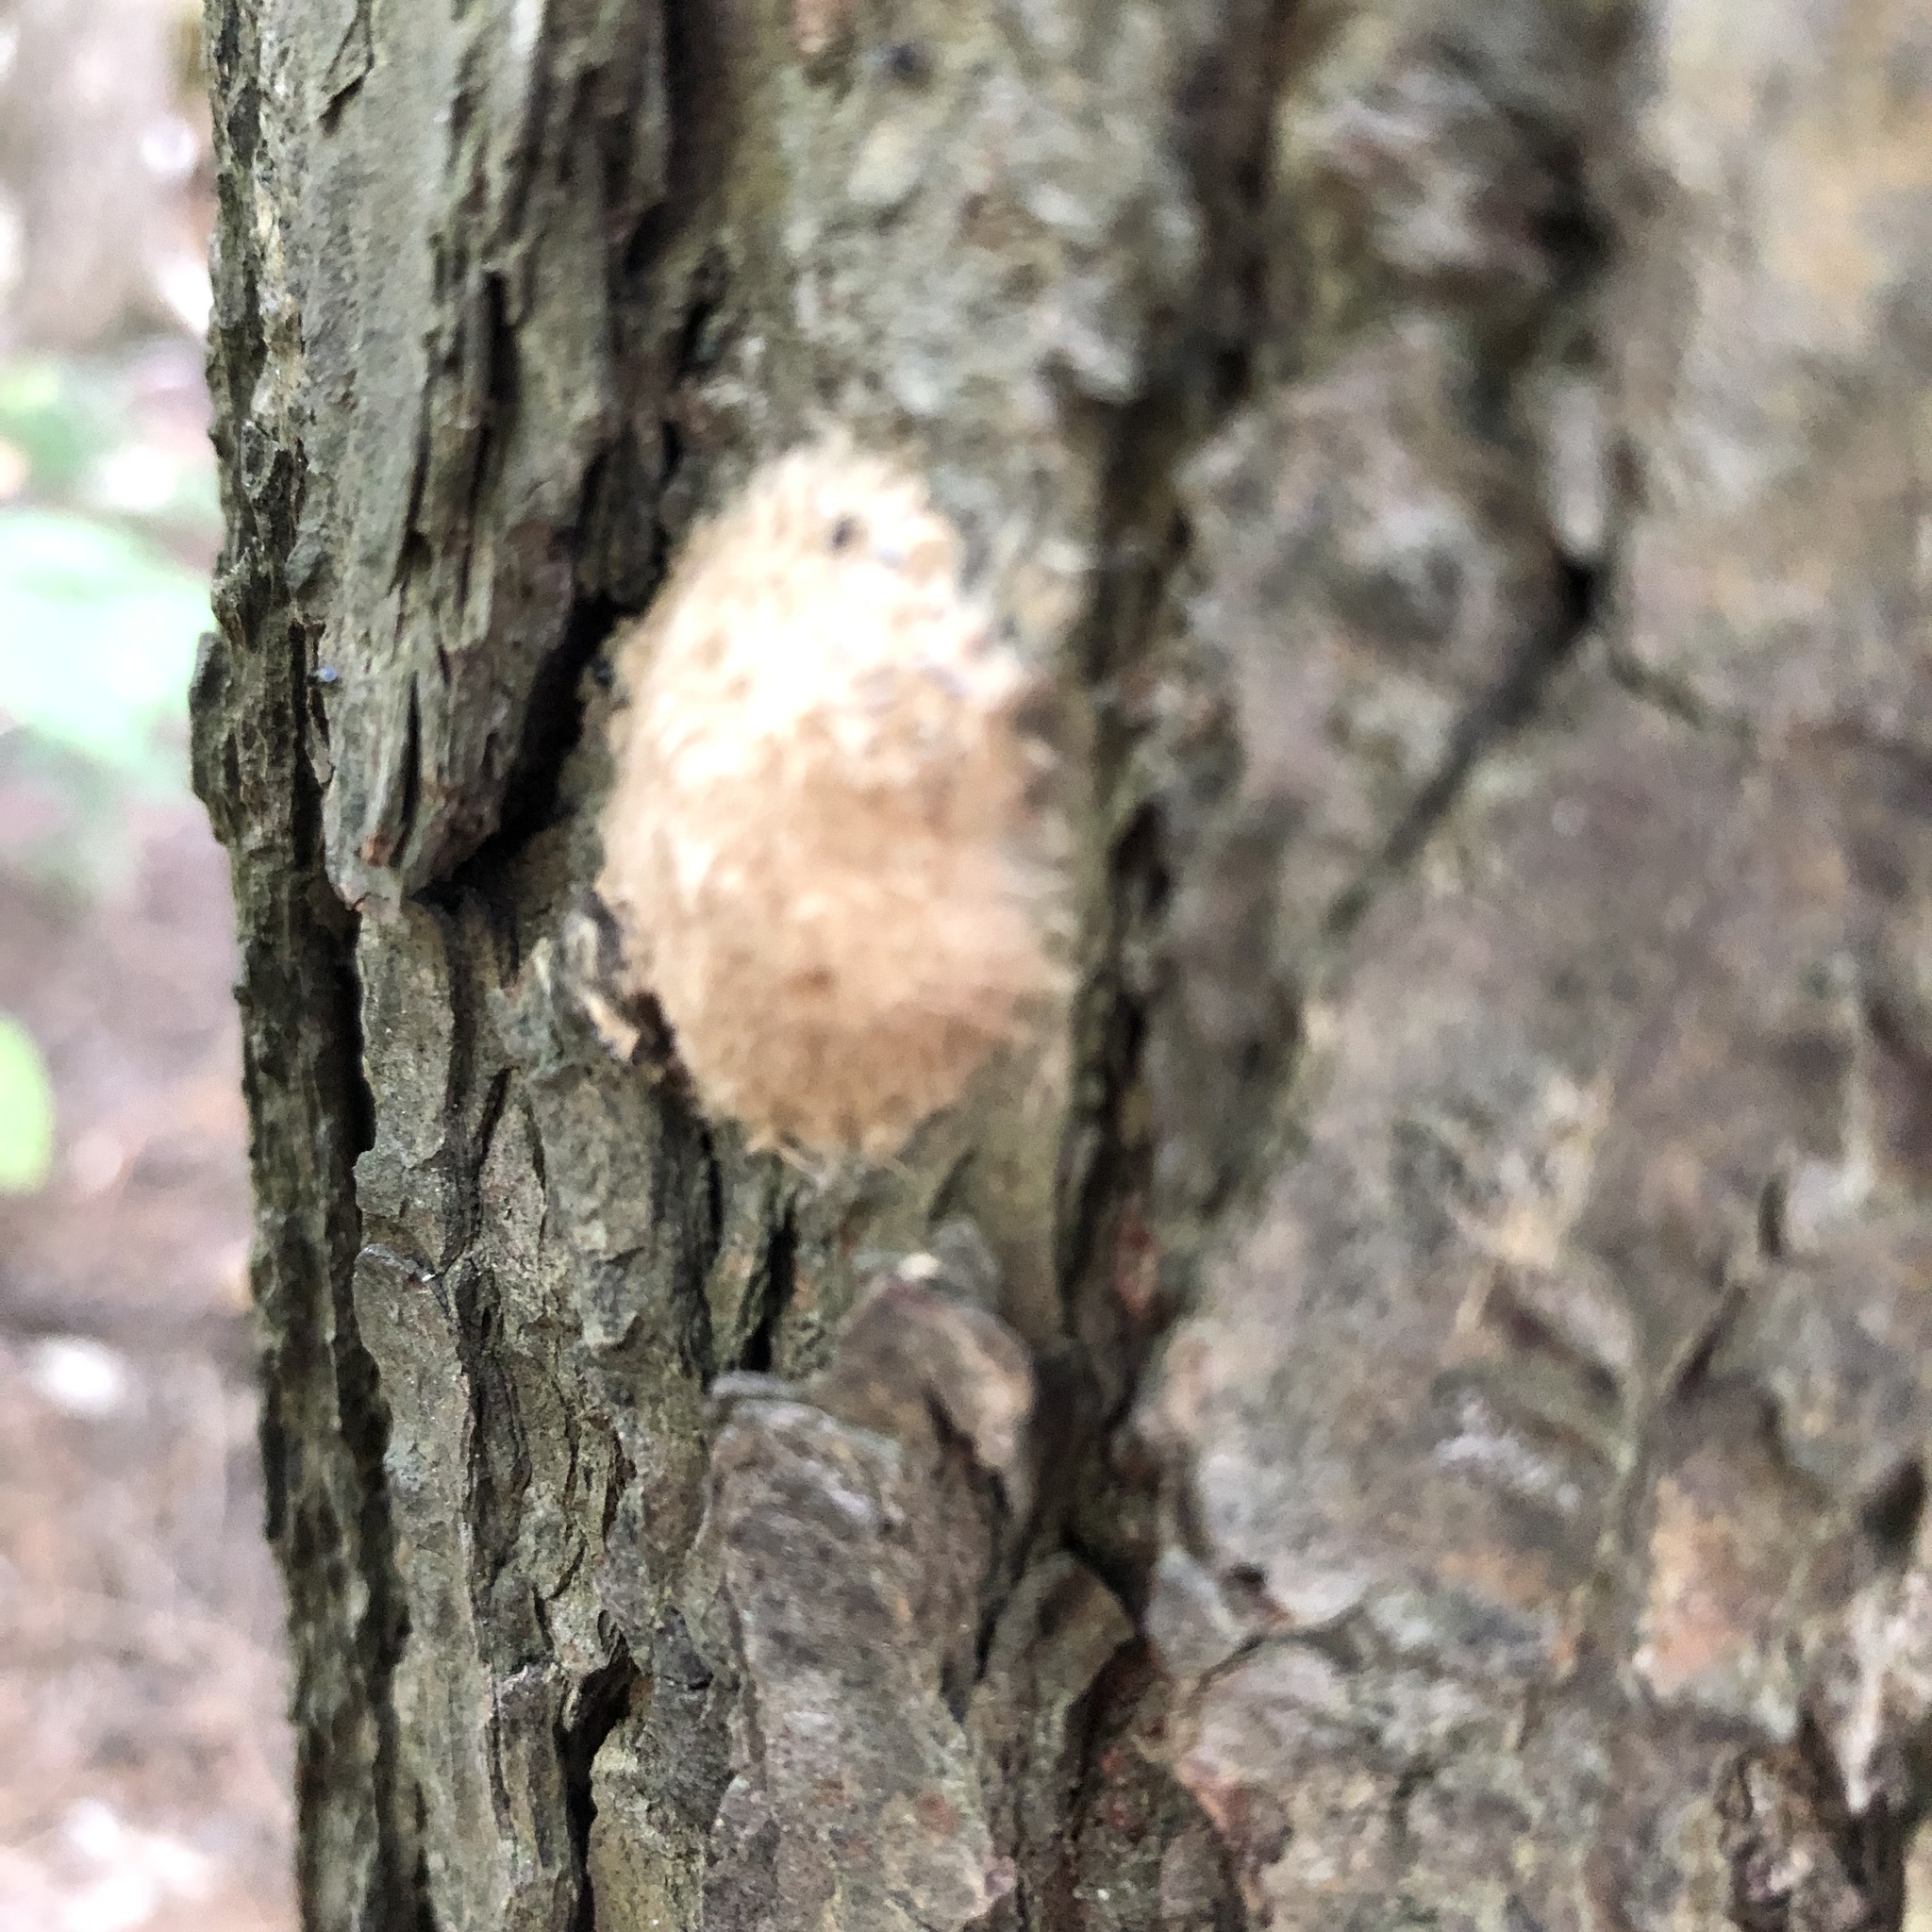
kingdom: Animalia
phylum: Arthropoda
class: Insecta
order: Lepidoptera
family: Erebidae
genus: Lymantria
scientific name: Lymantria dispar
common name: Gypsy moth
